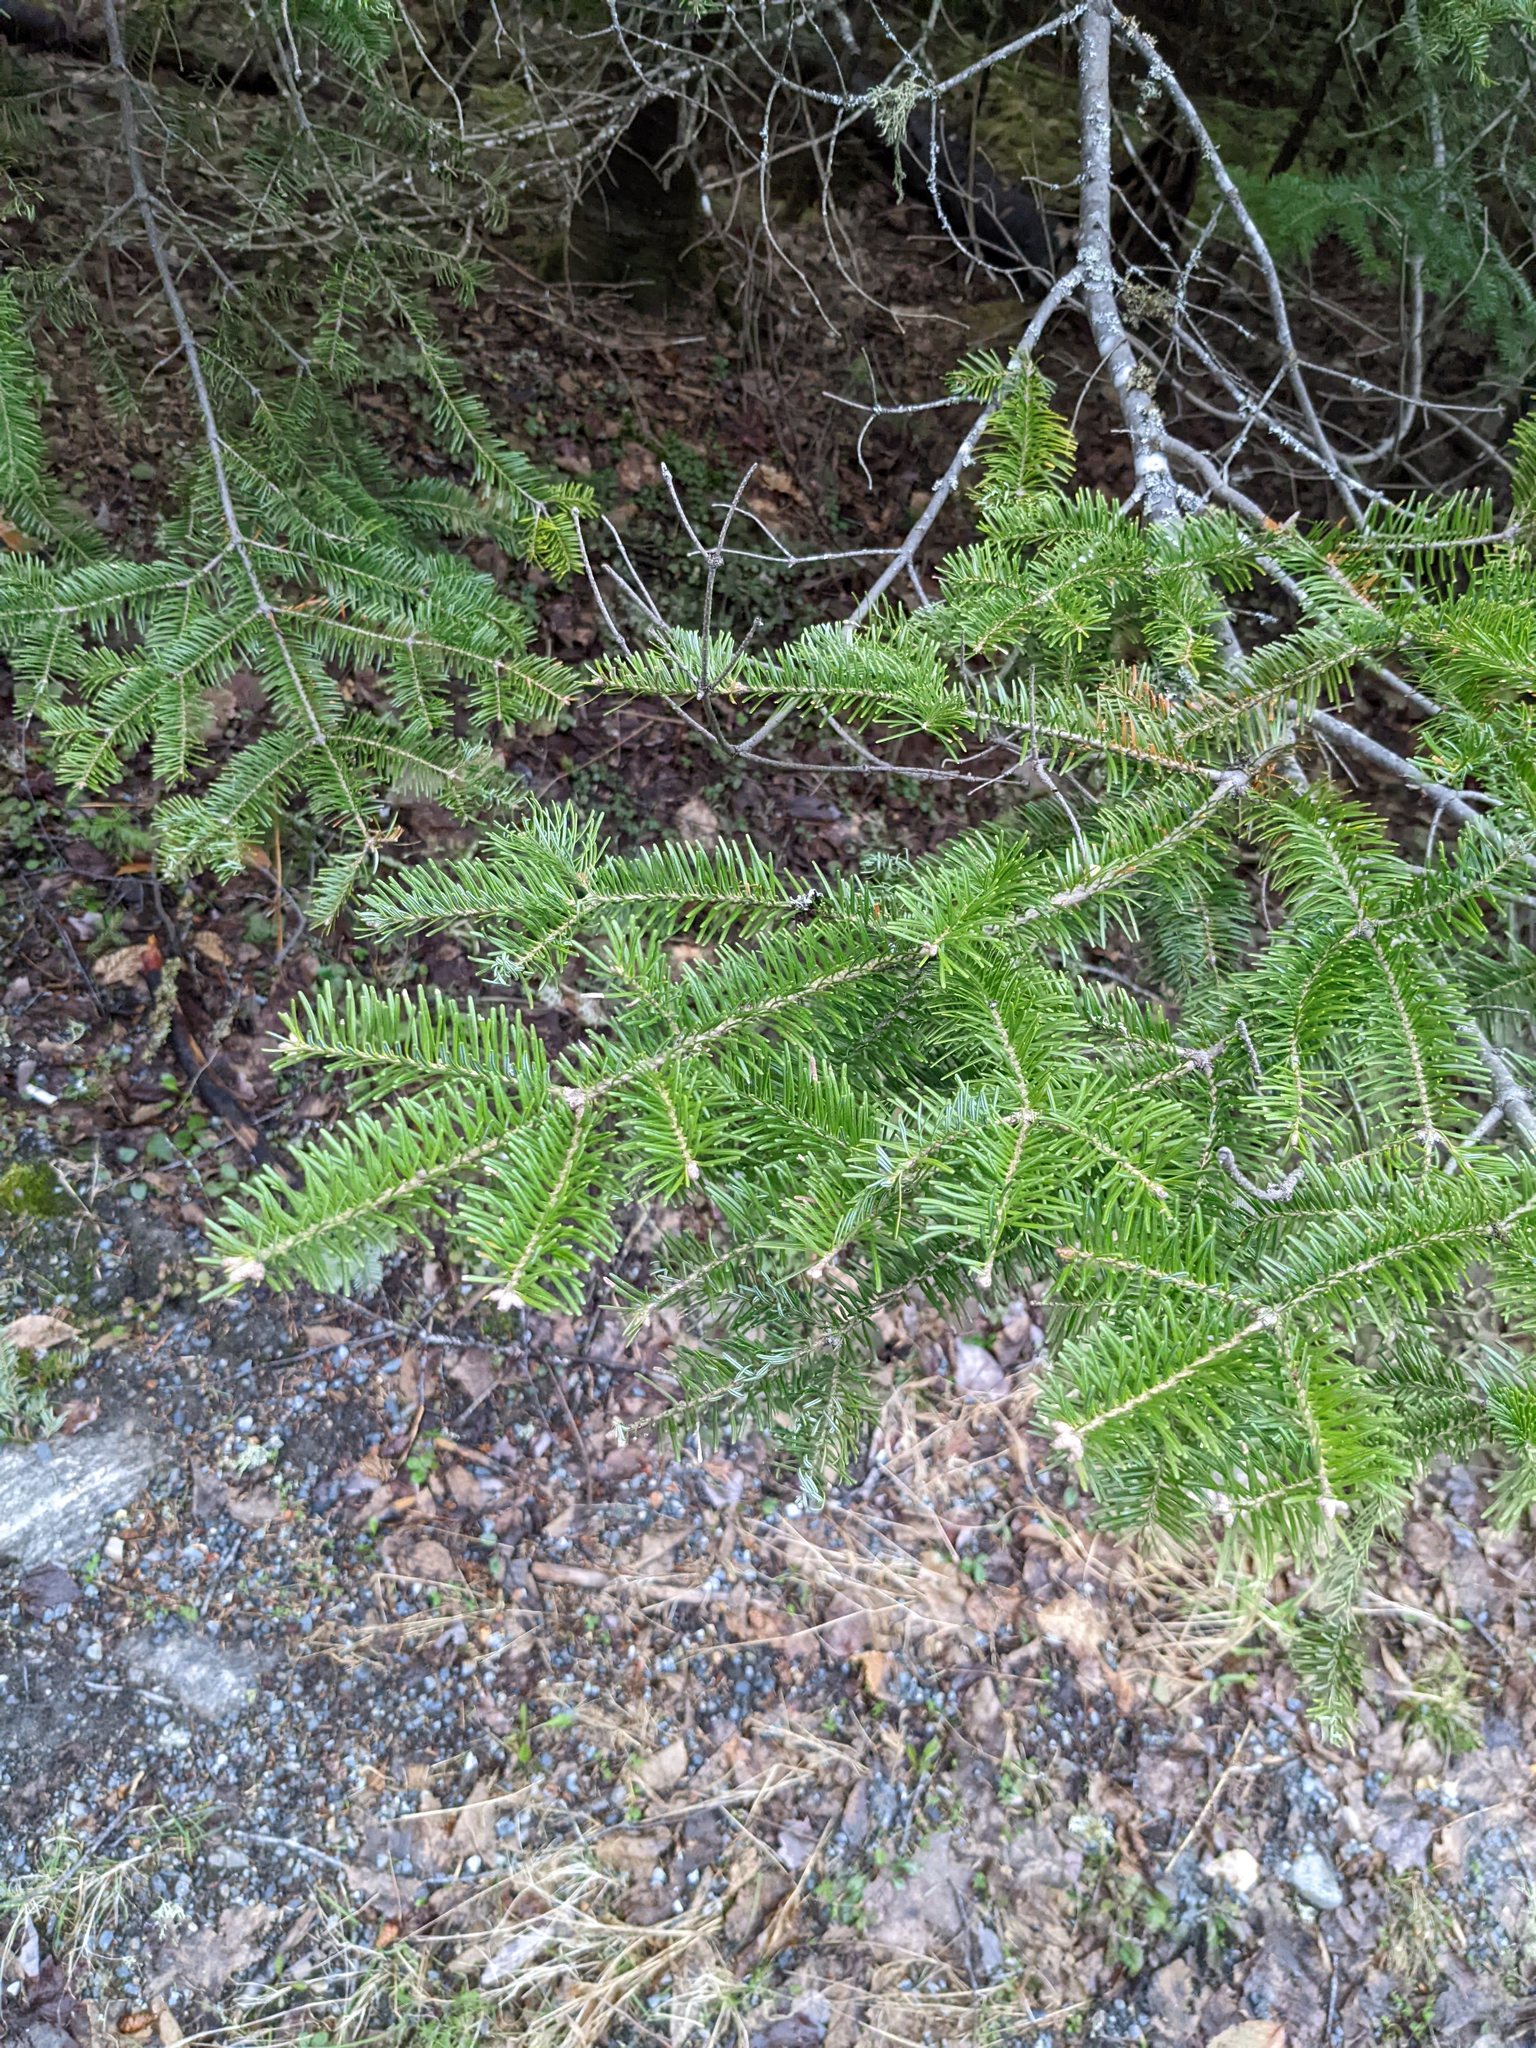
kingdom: Plantae
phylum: Tracheophyta
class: Pinopsida
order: Pinales
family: Pinaceae
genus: Abies
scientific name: Abies balsamea
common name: Balsam fir
